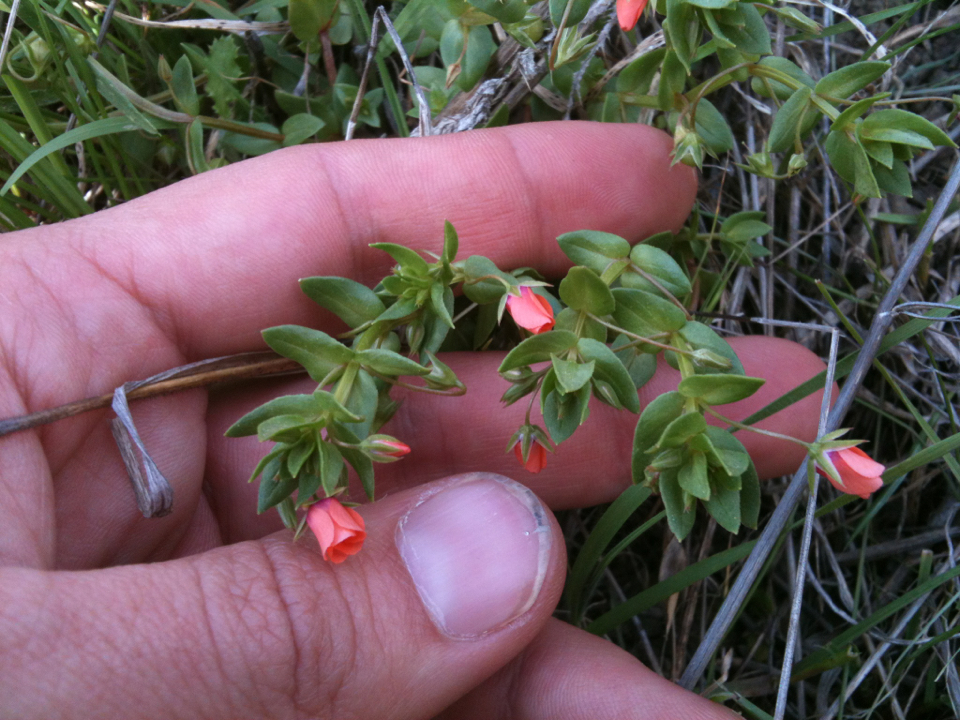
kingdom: Plantae
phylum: Tracheophyta
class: Magnoliopsida
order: Ericales
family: Primulaceae
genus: Lysimachia
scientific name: Lysimachia arvensis
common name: Scarlet pimpernel
